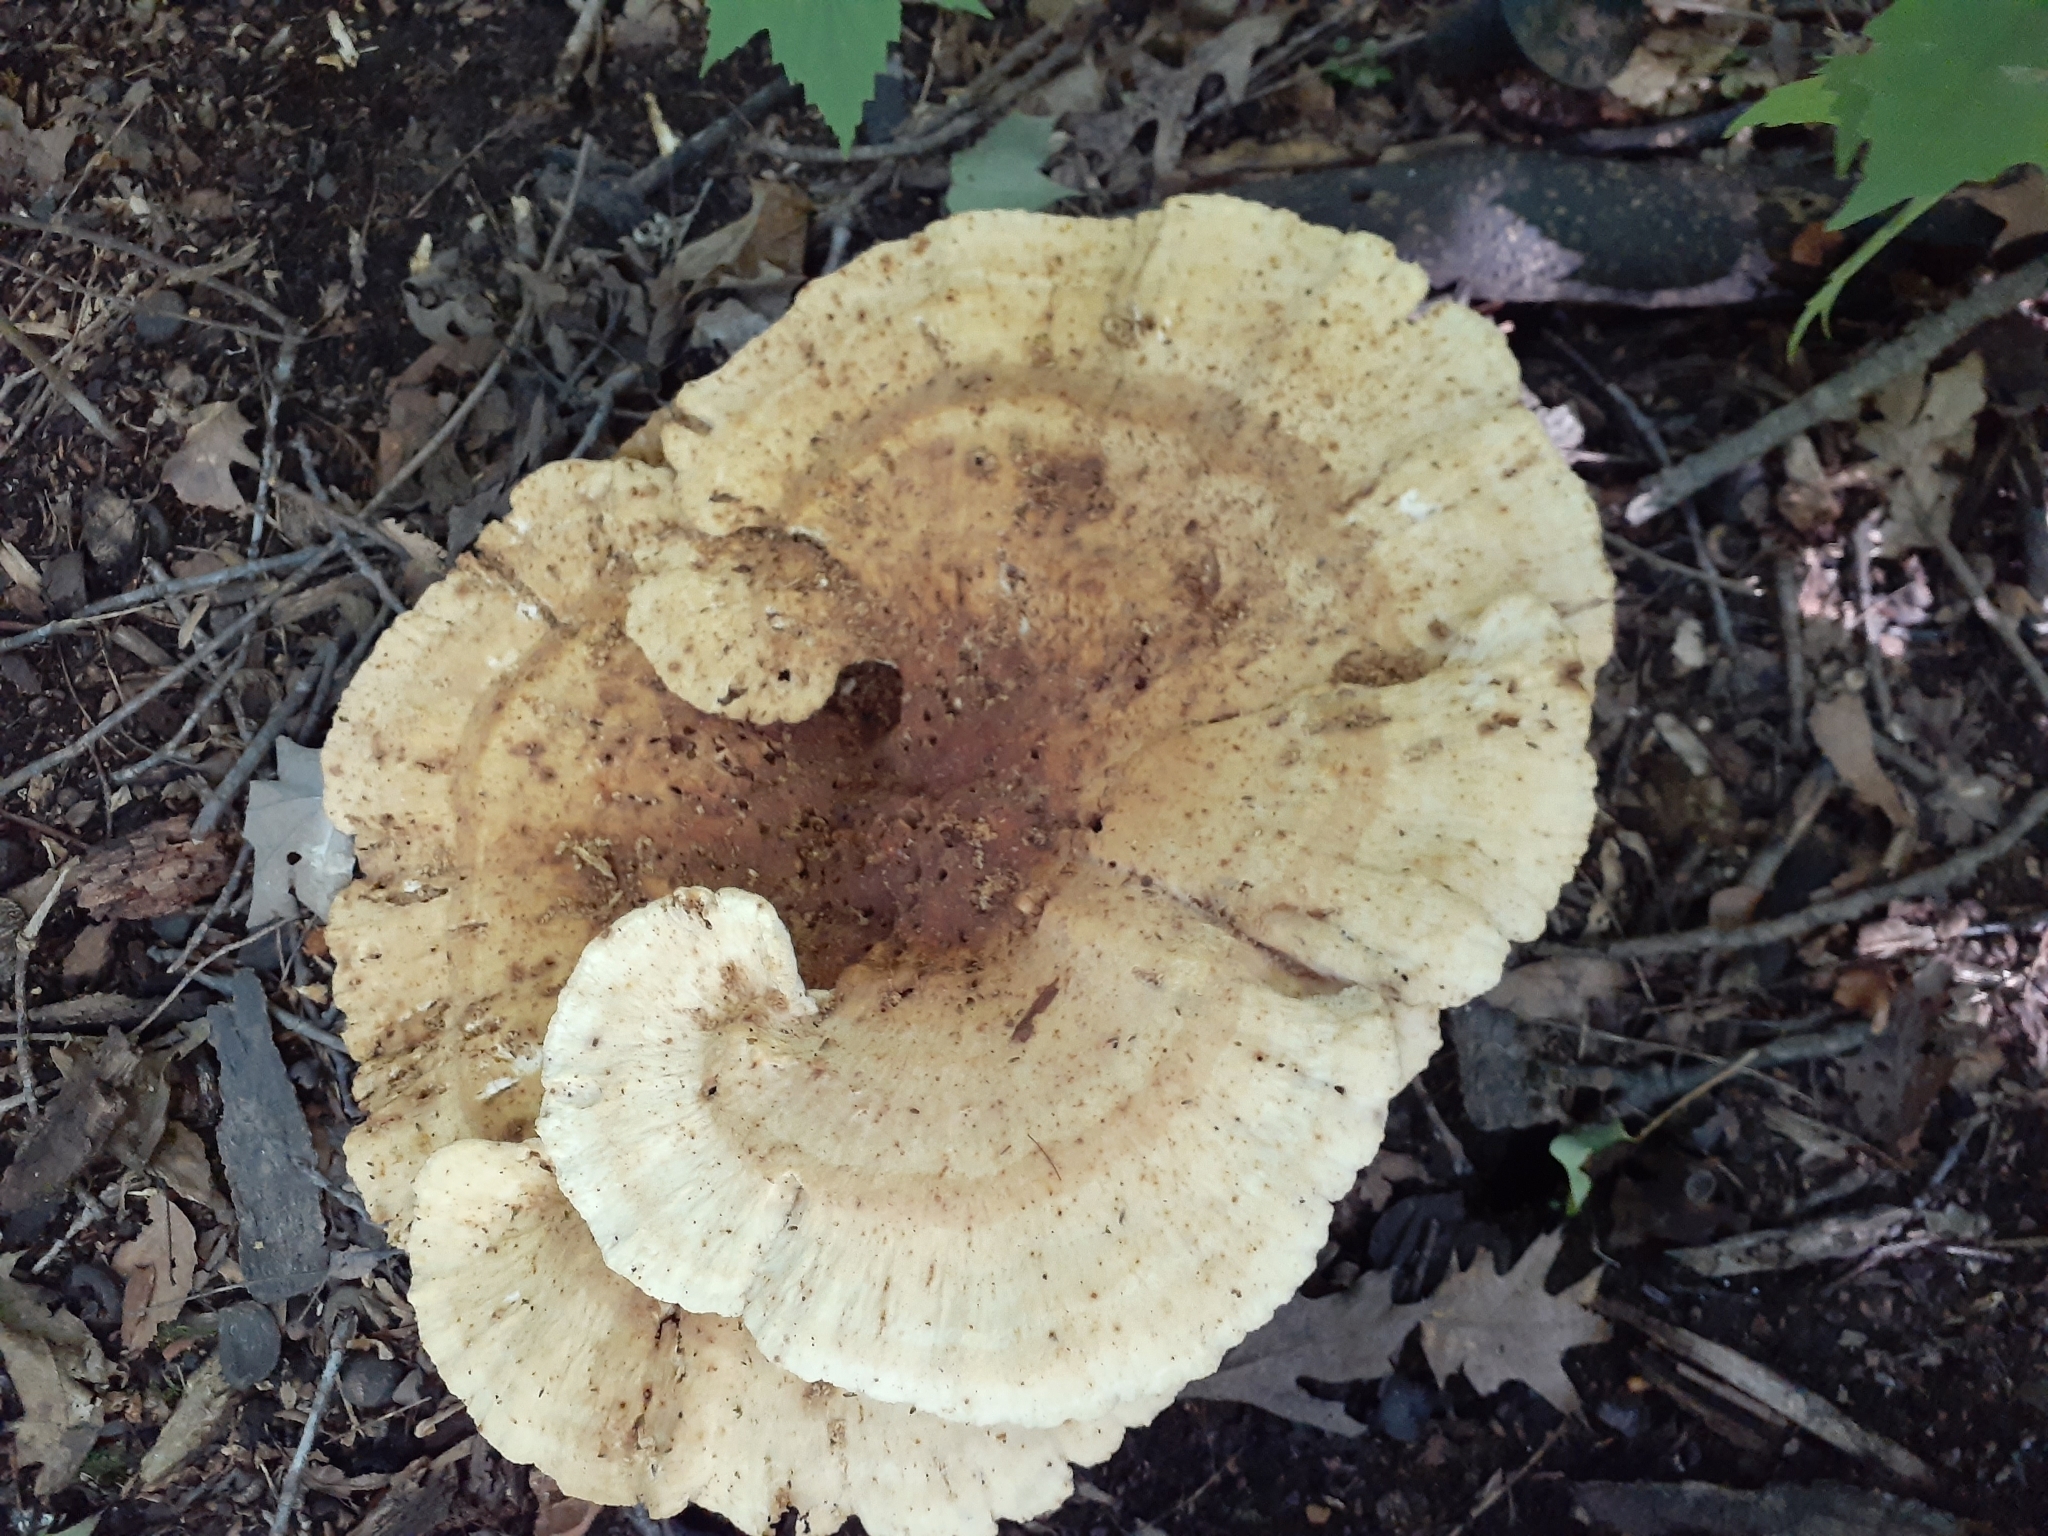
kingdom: Fungi
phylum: Basidiomycota
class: Agaricomycetes
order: Russulales
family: Bondarzewiaceae
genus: Bondarzewia
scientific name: Bondarzewia berkeleyi
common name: Berkeley's polypore
